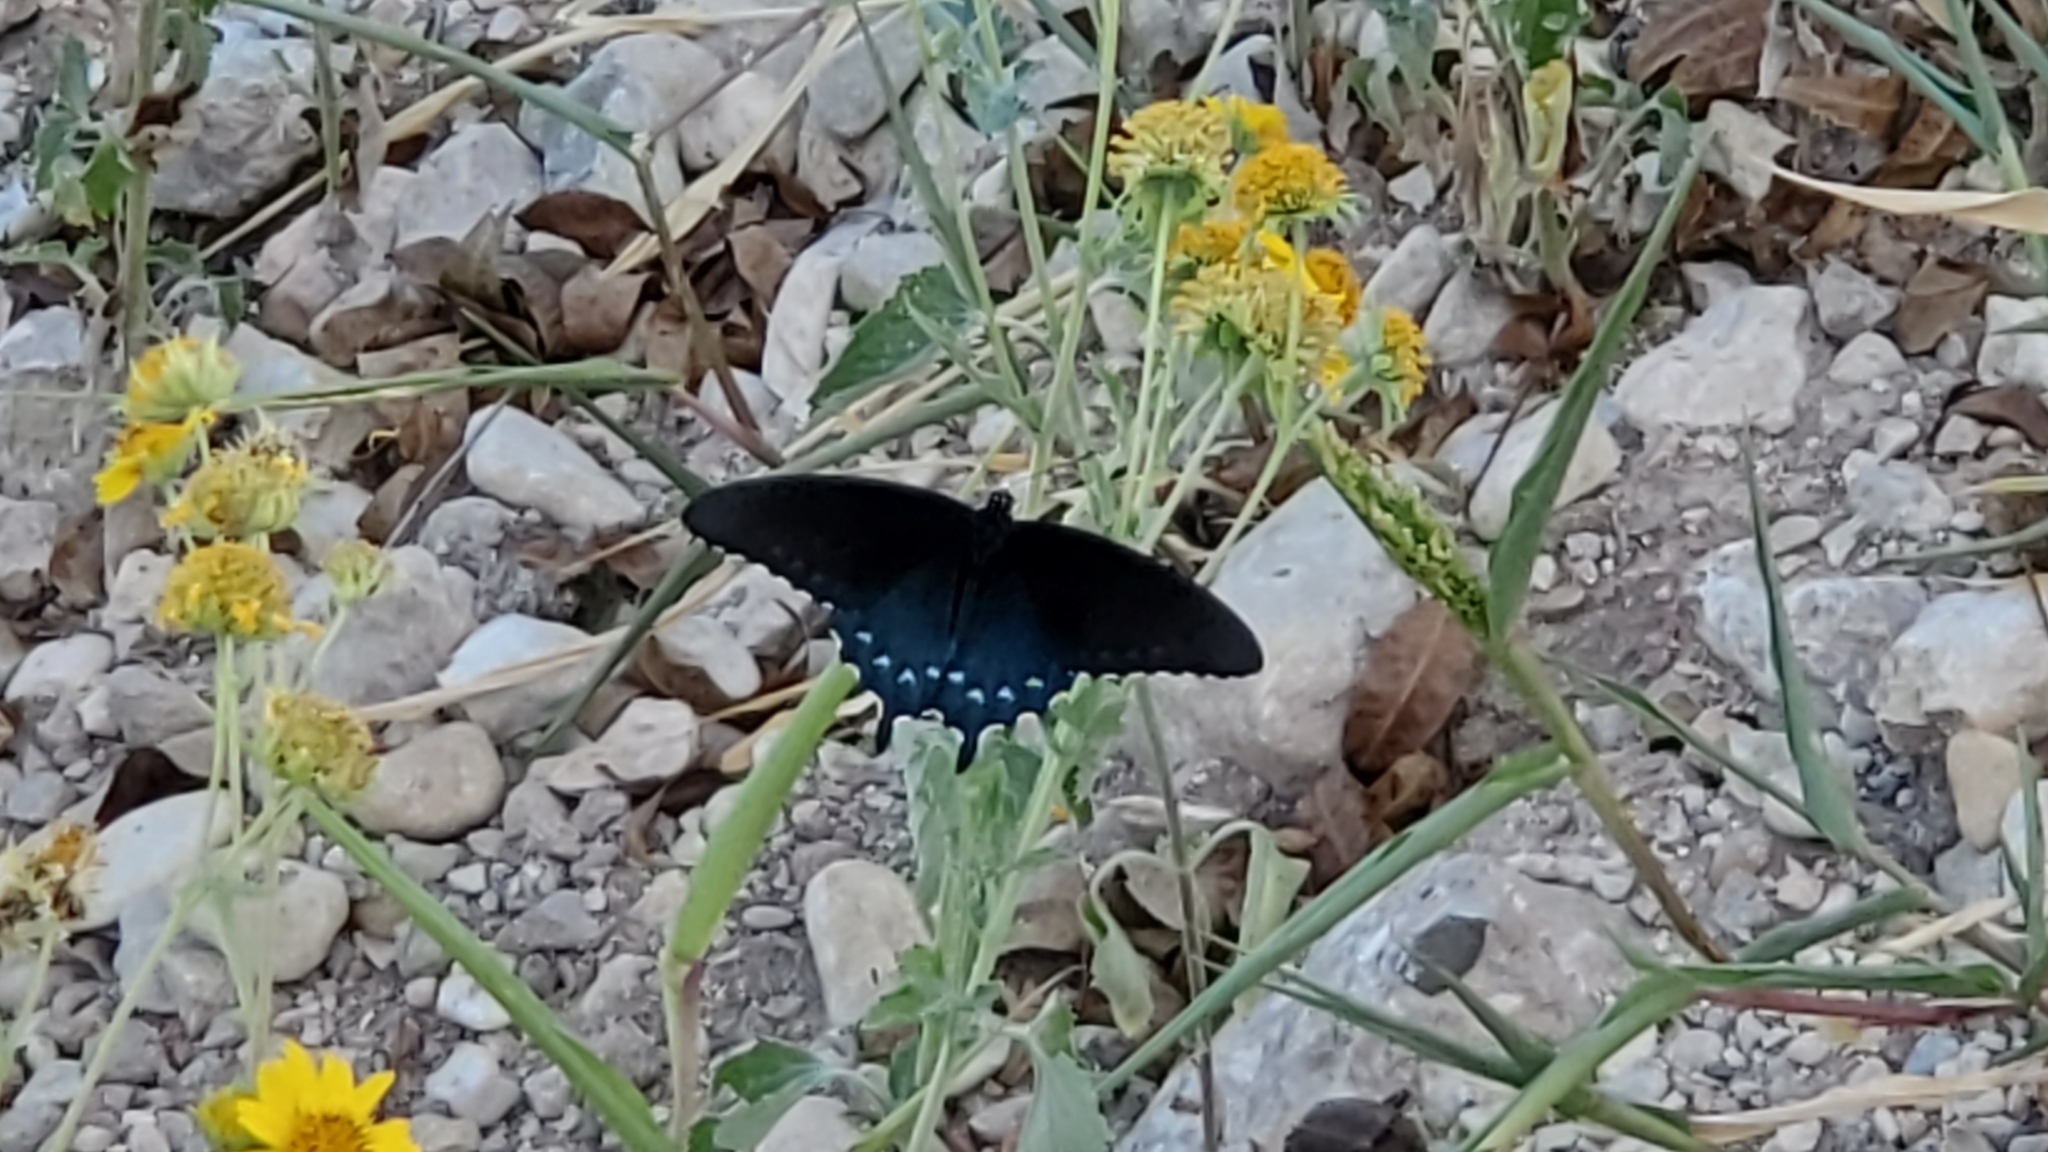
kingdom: Animalia
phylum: Arthropoda
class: Insecta
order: Lepidoptera
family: Papilionidae
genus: Battus
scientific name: Battus philenor
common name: Pipevine swallowtail
